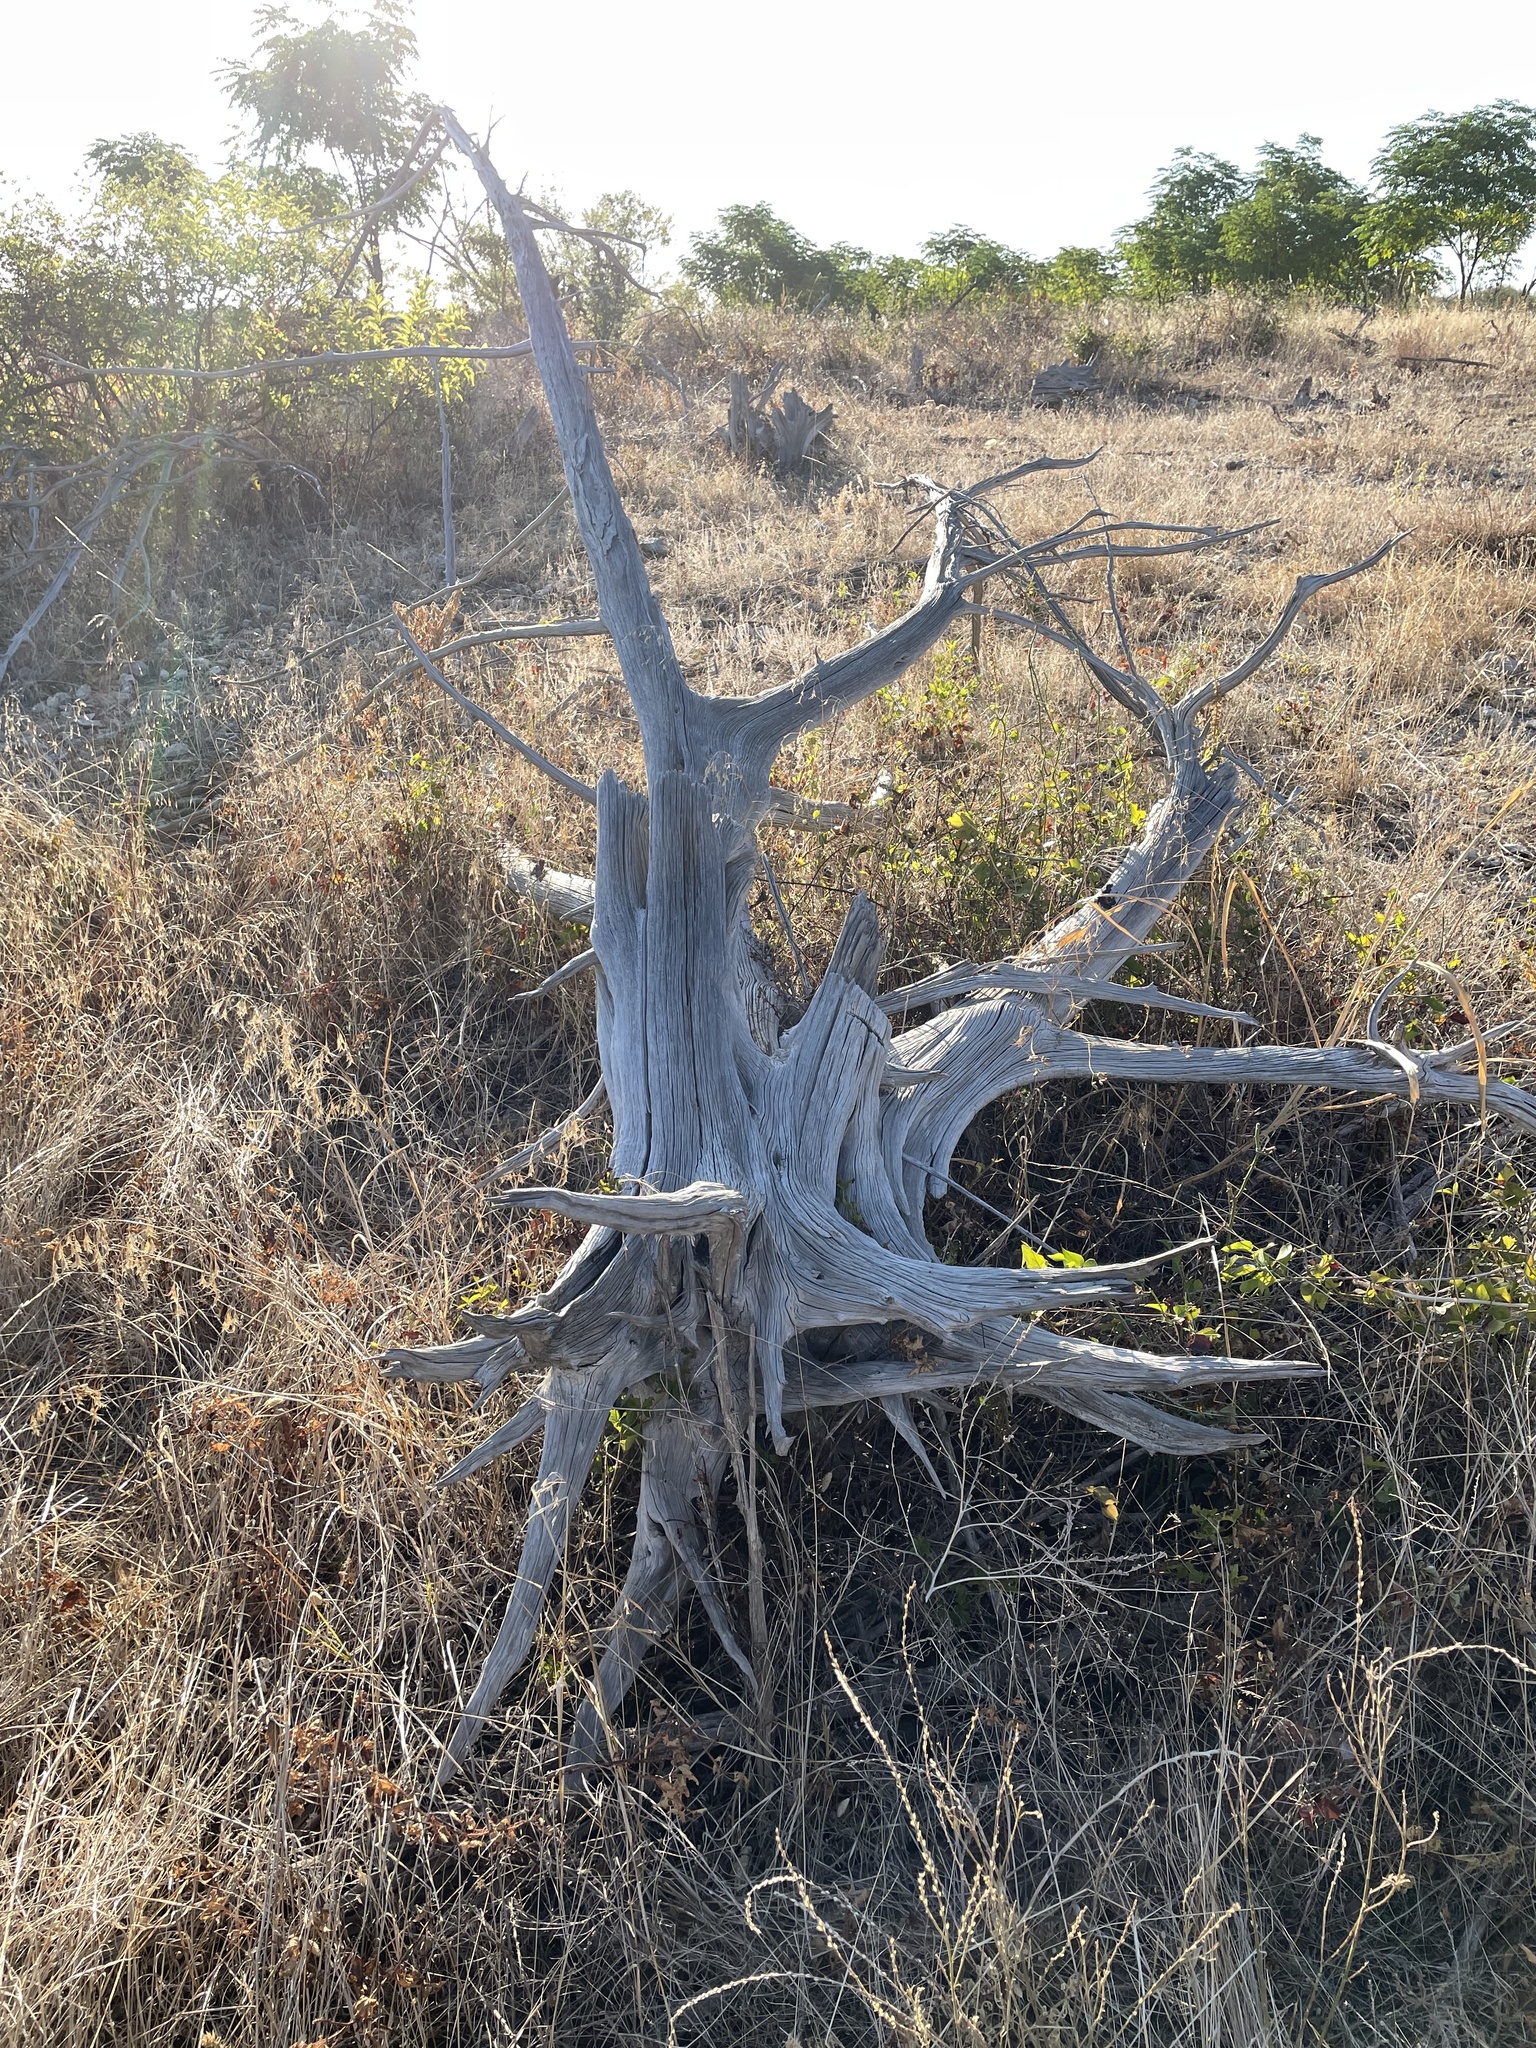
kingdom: Plantae
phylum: Tracheophyta
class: Pinopsida
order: Pinales
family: Cupressaceae
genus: Juniperus
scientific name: Juniperus ashei
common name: Mexican juniper
